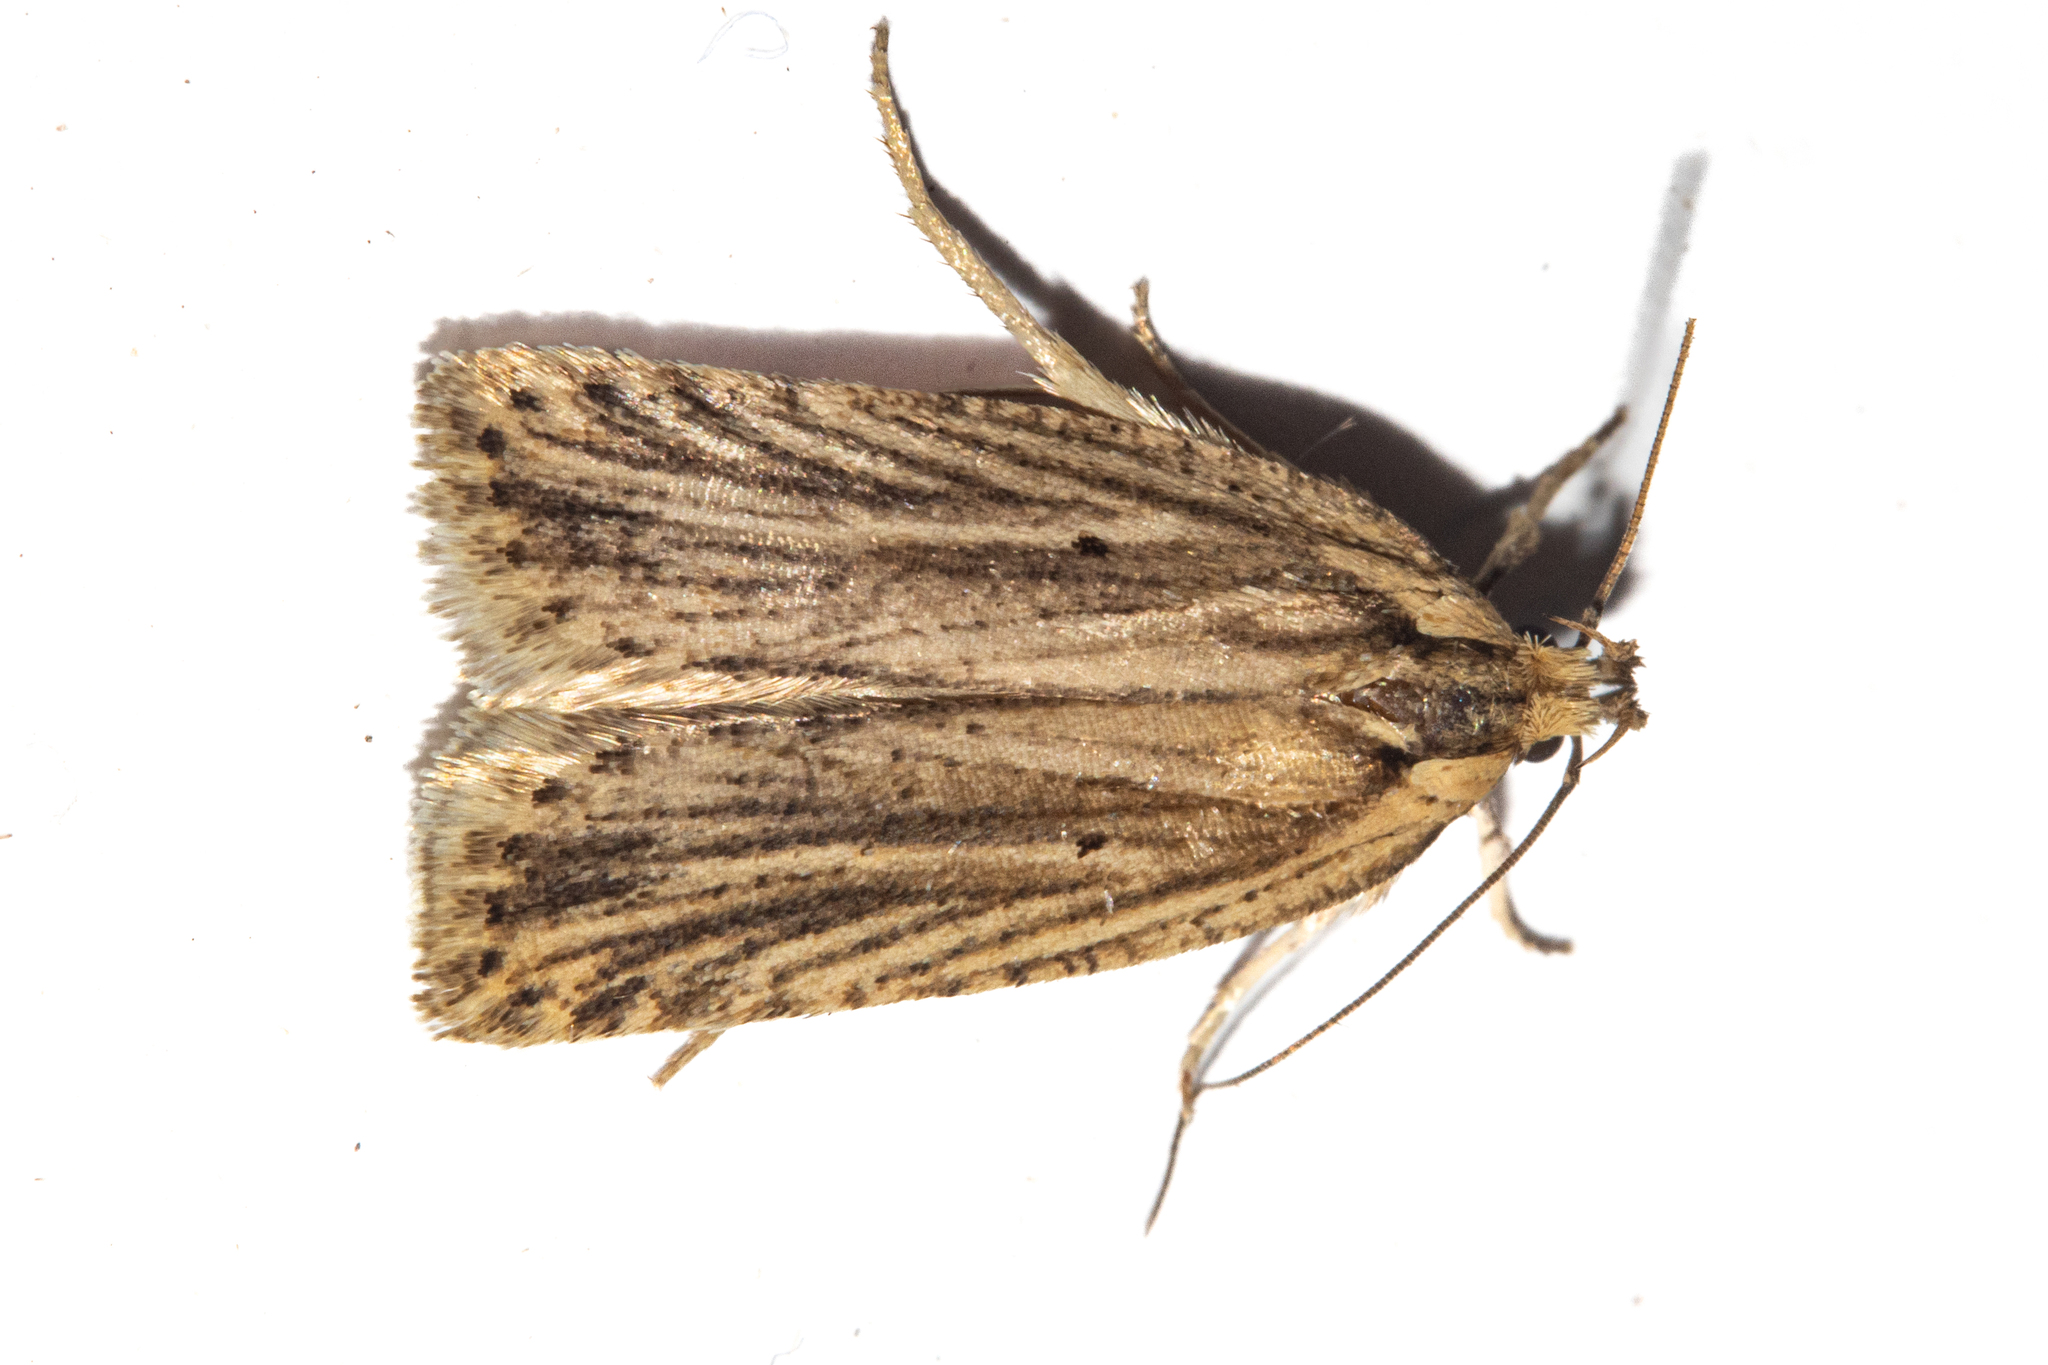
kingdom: Animalia
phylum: Arthropoda
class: Insecta
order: Lepidoptera
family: Depressariidae
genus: Agonopterix
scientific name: Agonopterix
